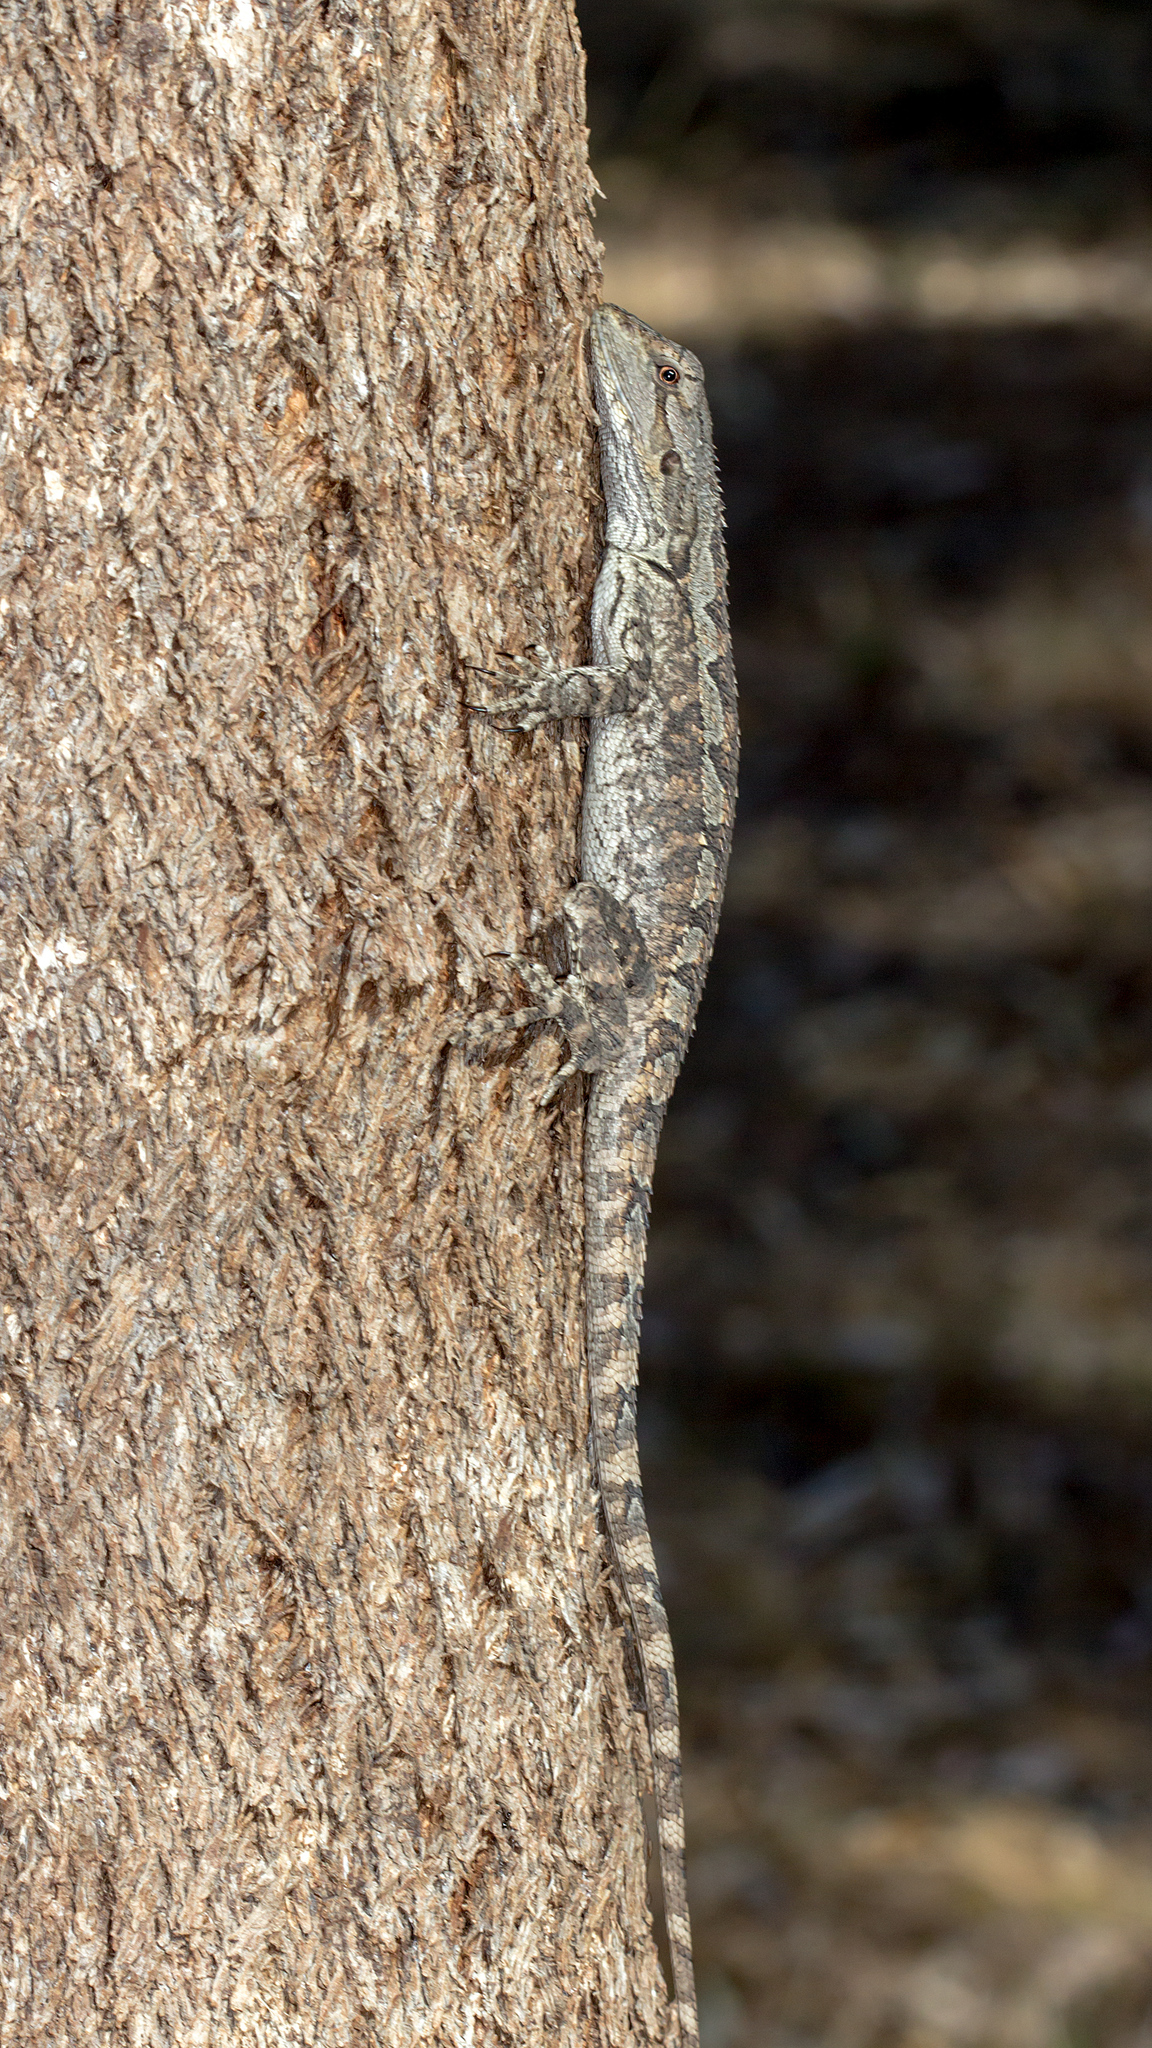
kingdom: Animalia
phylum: Chordata
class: Squamata
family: Agamidae
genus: Amphibolurus
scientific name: Amphibolurus muricatus
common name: Jacky lizard
